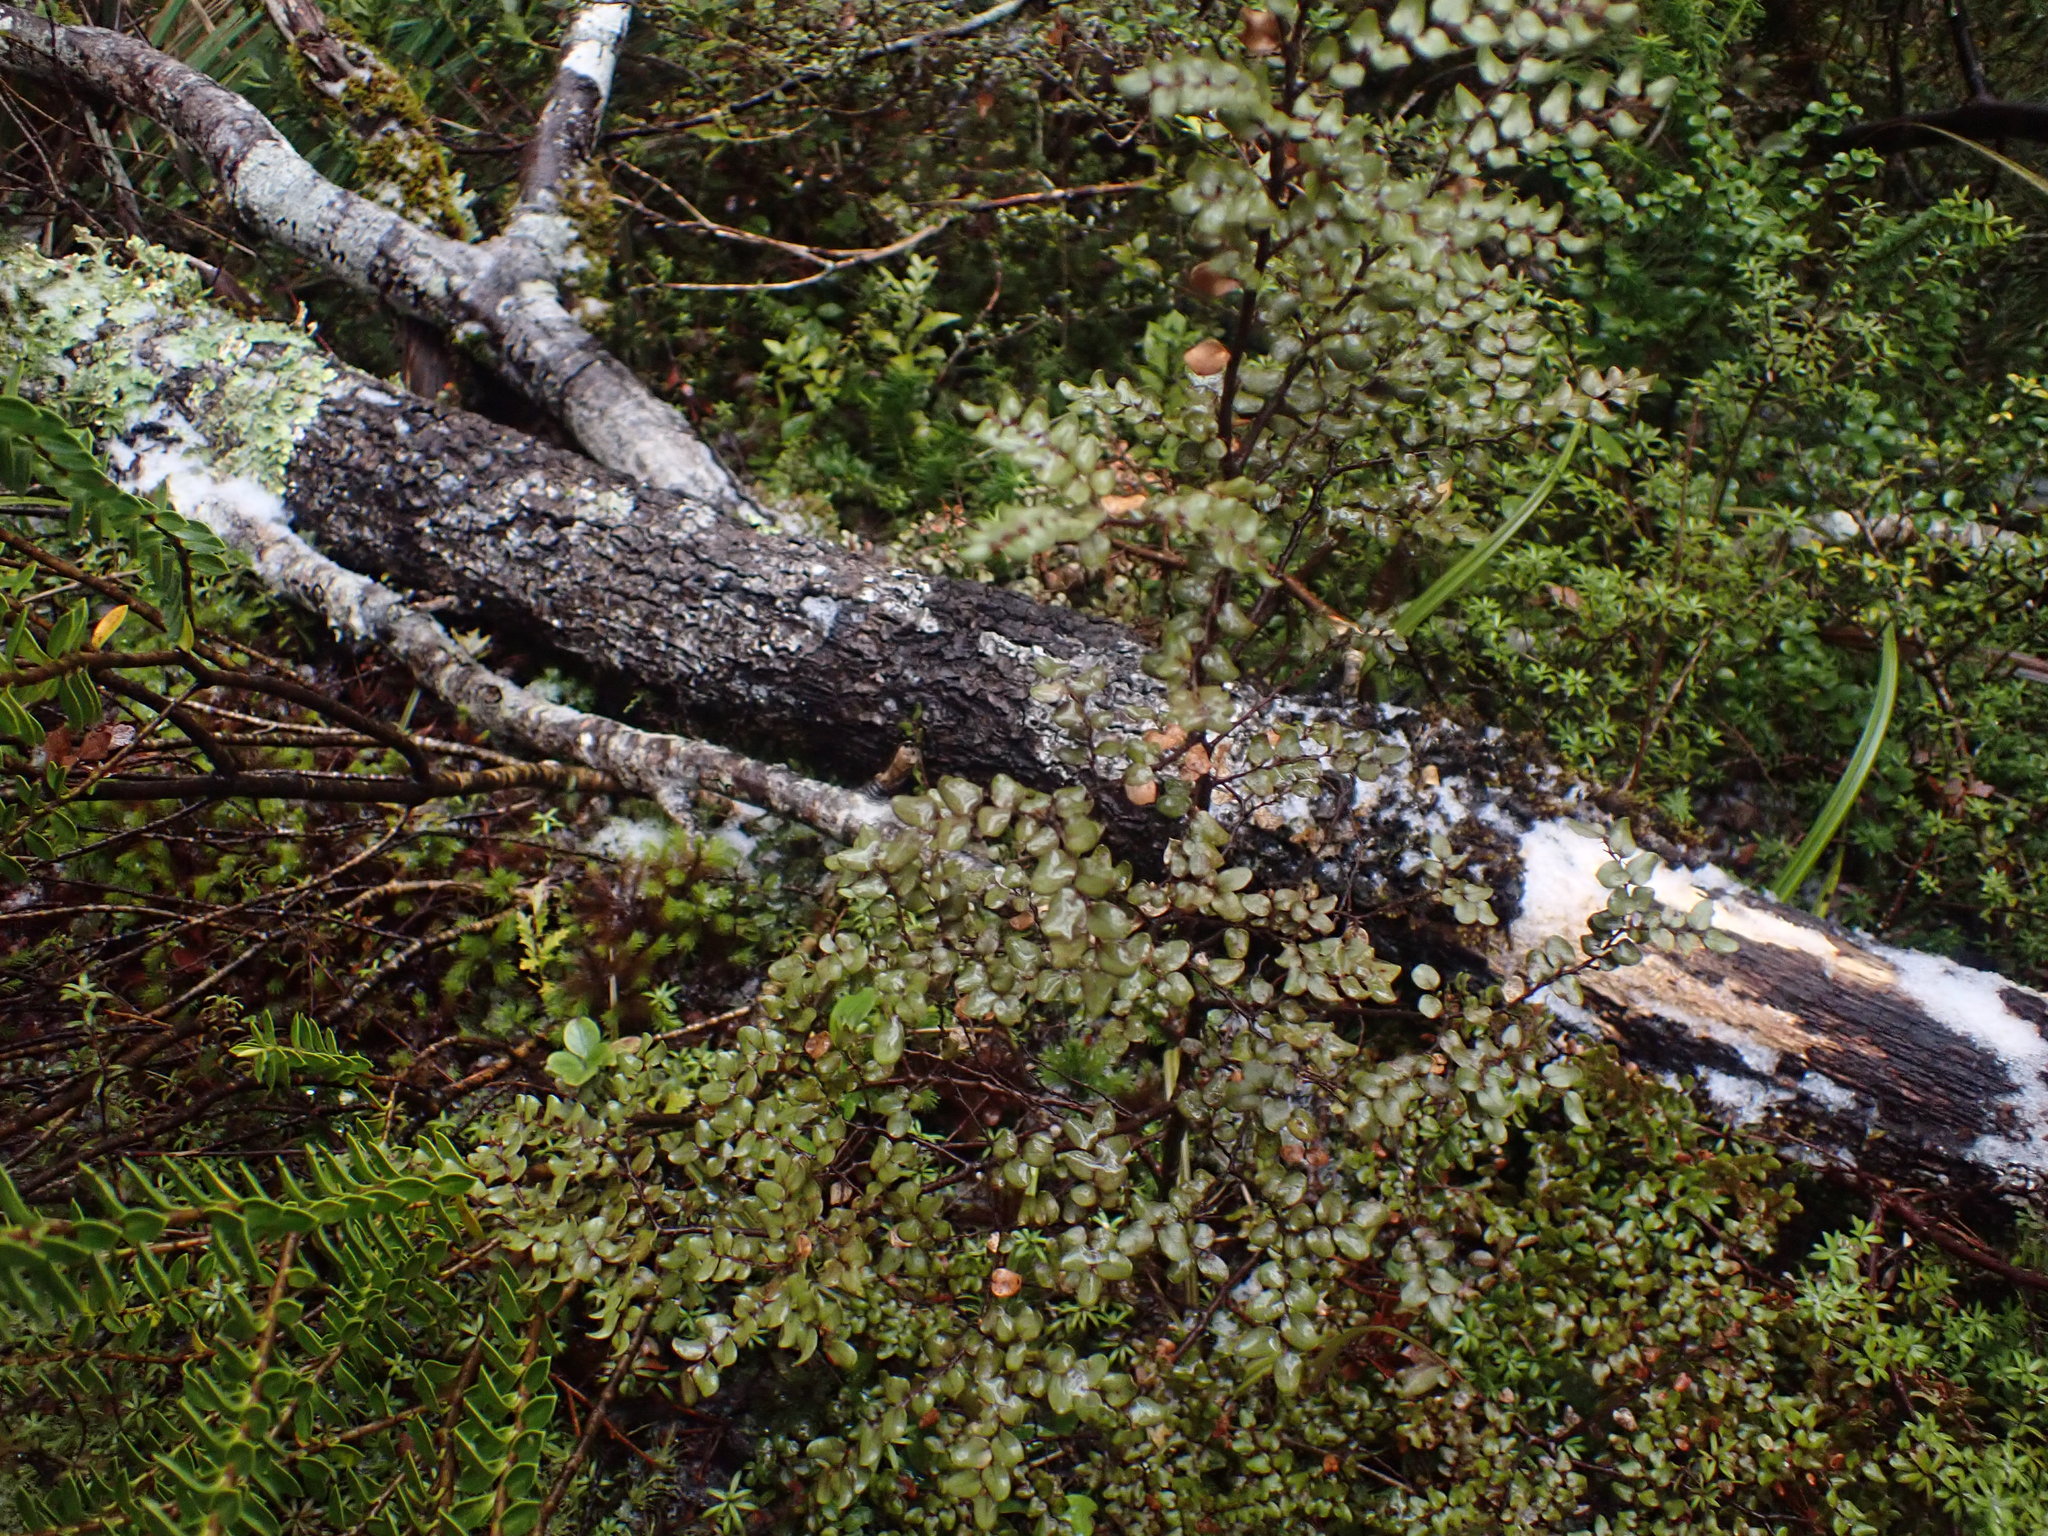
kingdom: Plantae
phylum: Tracheophyta
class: Magnoliopsida
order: Fagales
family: Nothofagaceae
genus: Nothofagus
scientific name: Nothofagus cliffortioides
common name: Mountain beech
